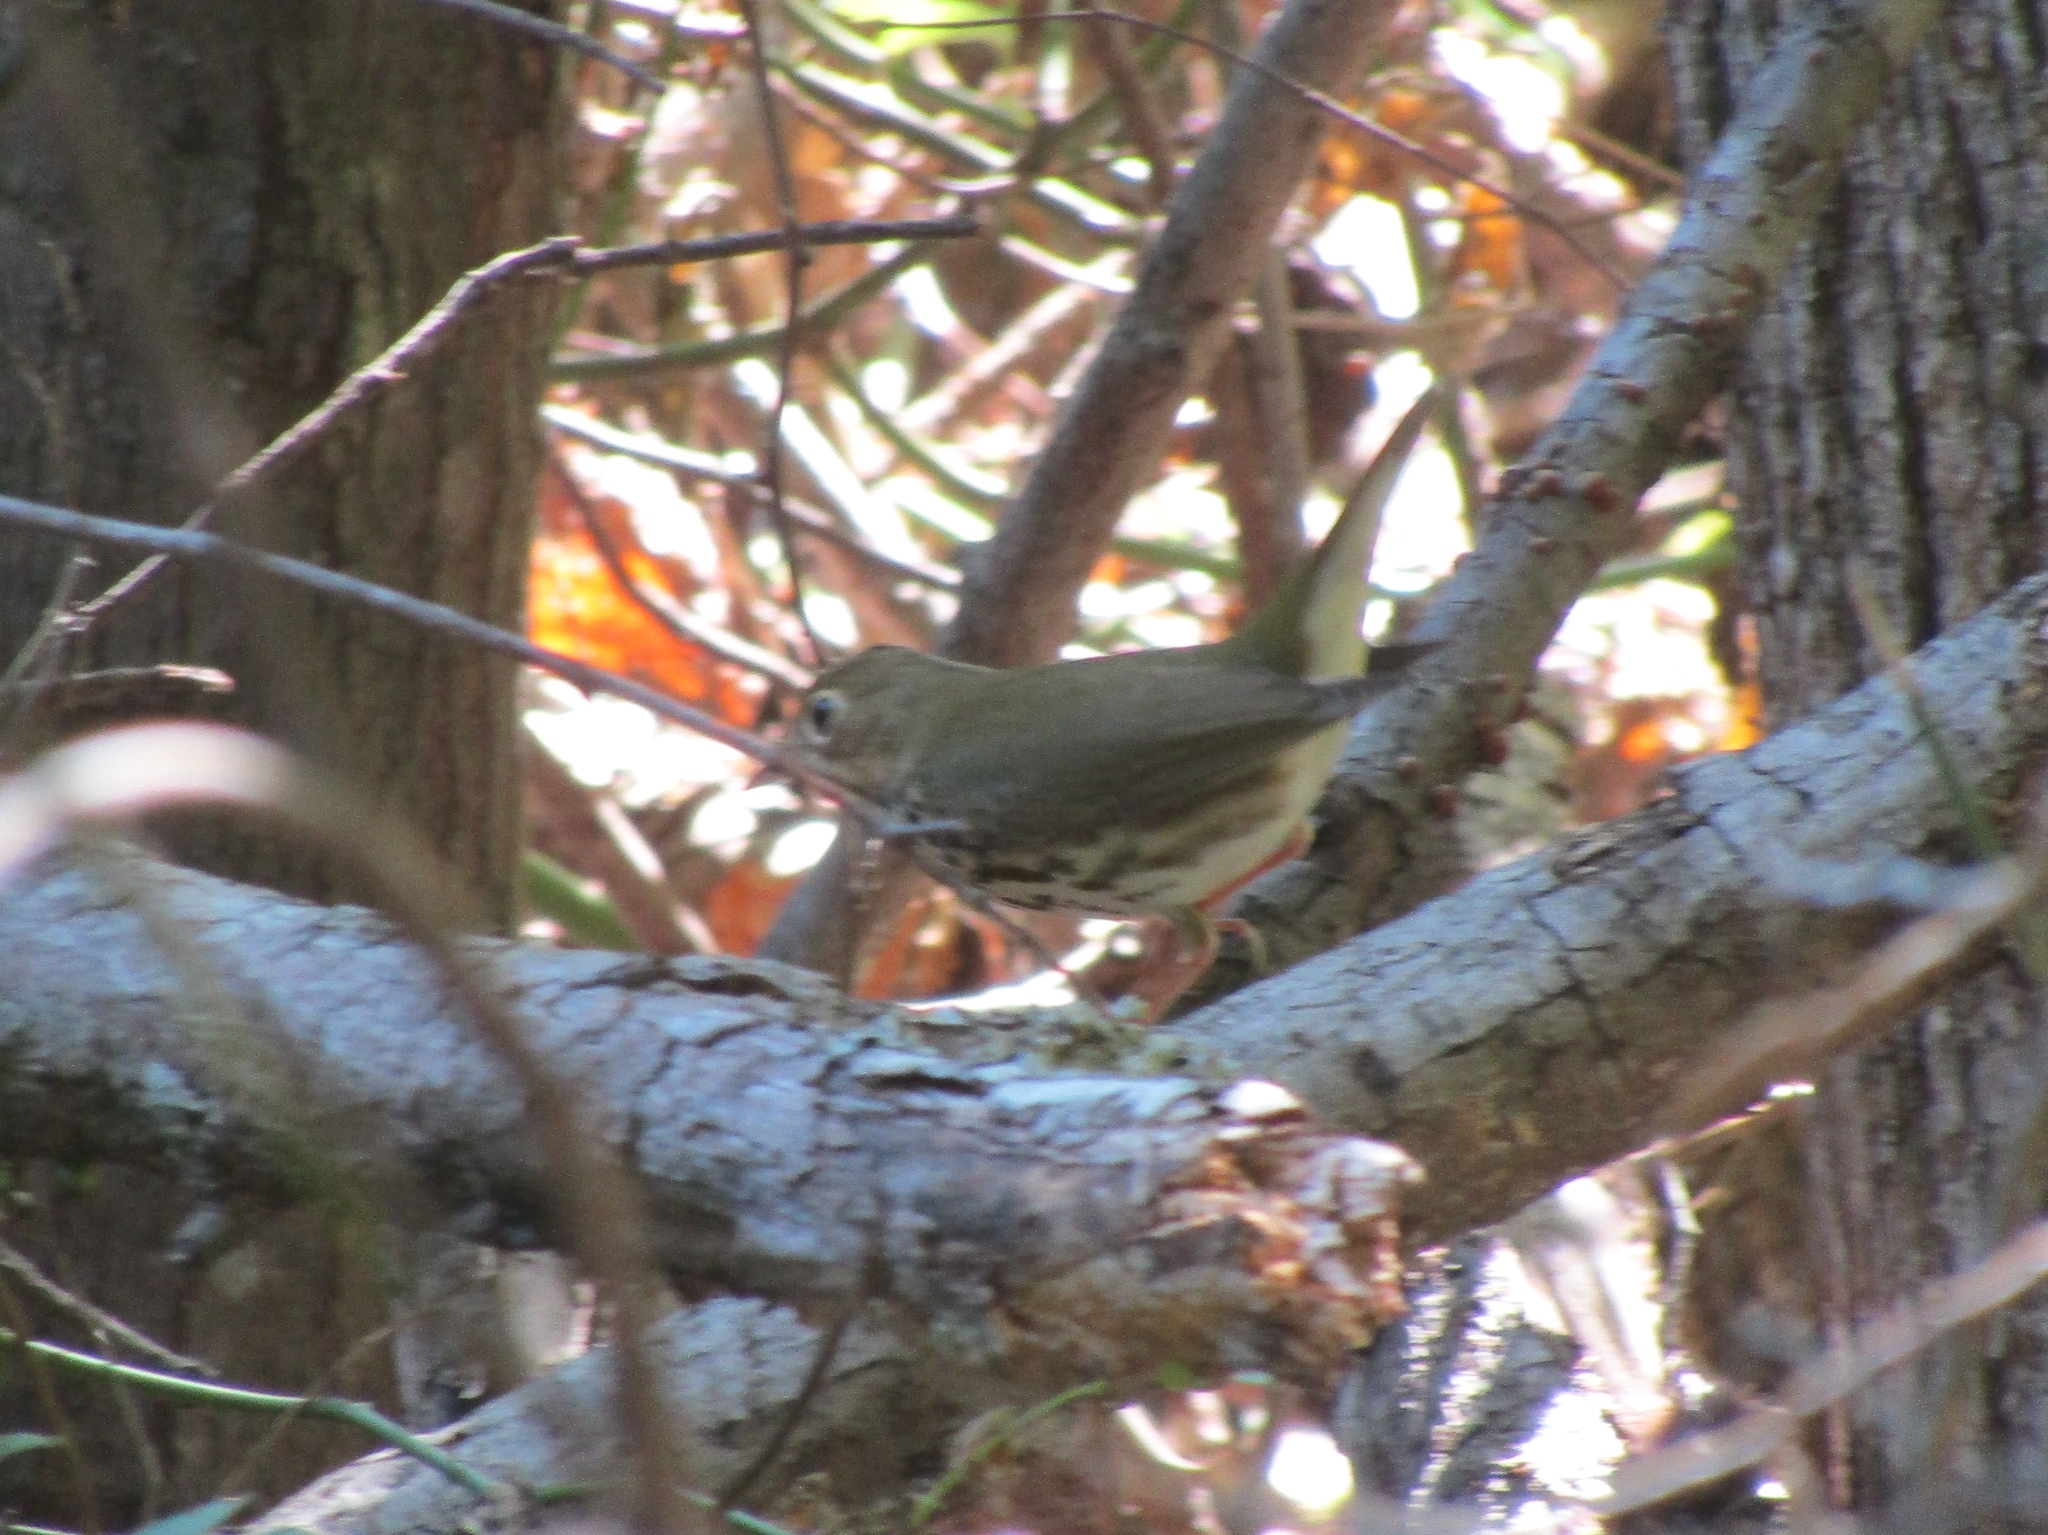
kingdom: Animalia
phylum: Chordata
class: Aves
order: Passeriformes
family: Parulidae
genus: Seiurus
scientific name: Seiurus aurocapilla
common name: Ovenbird
